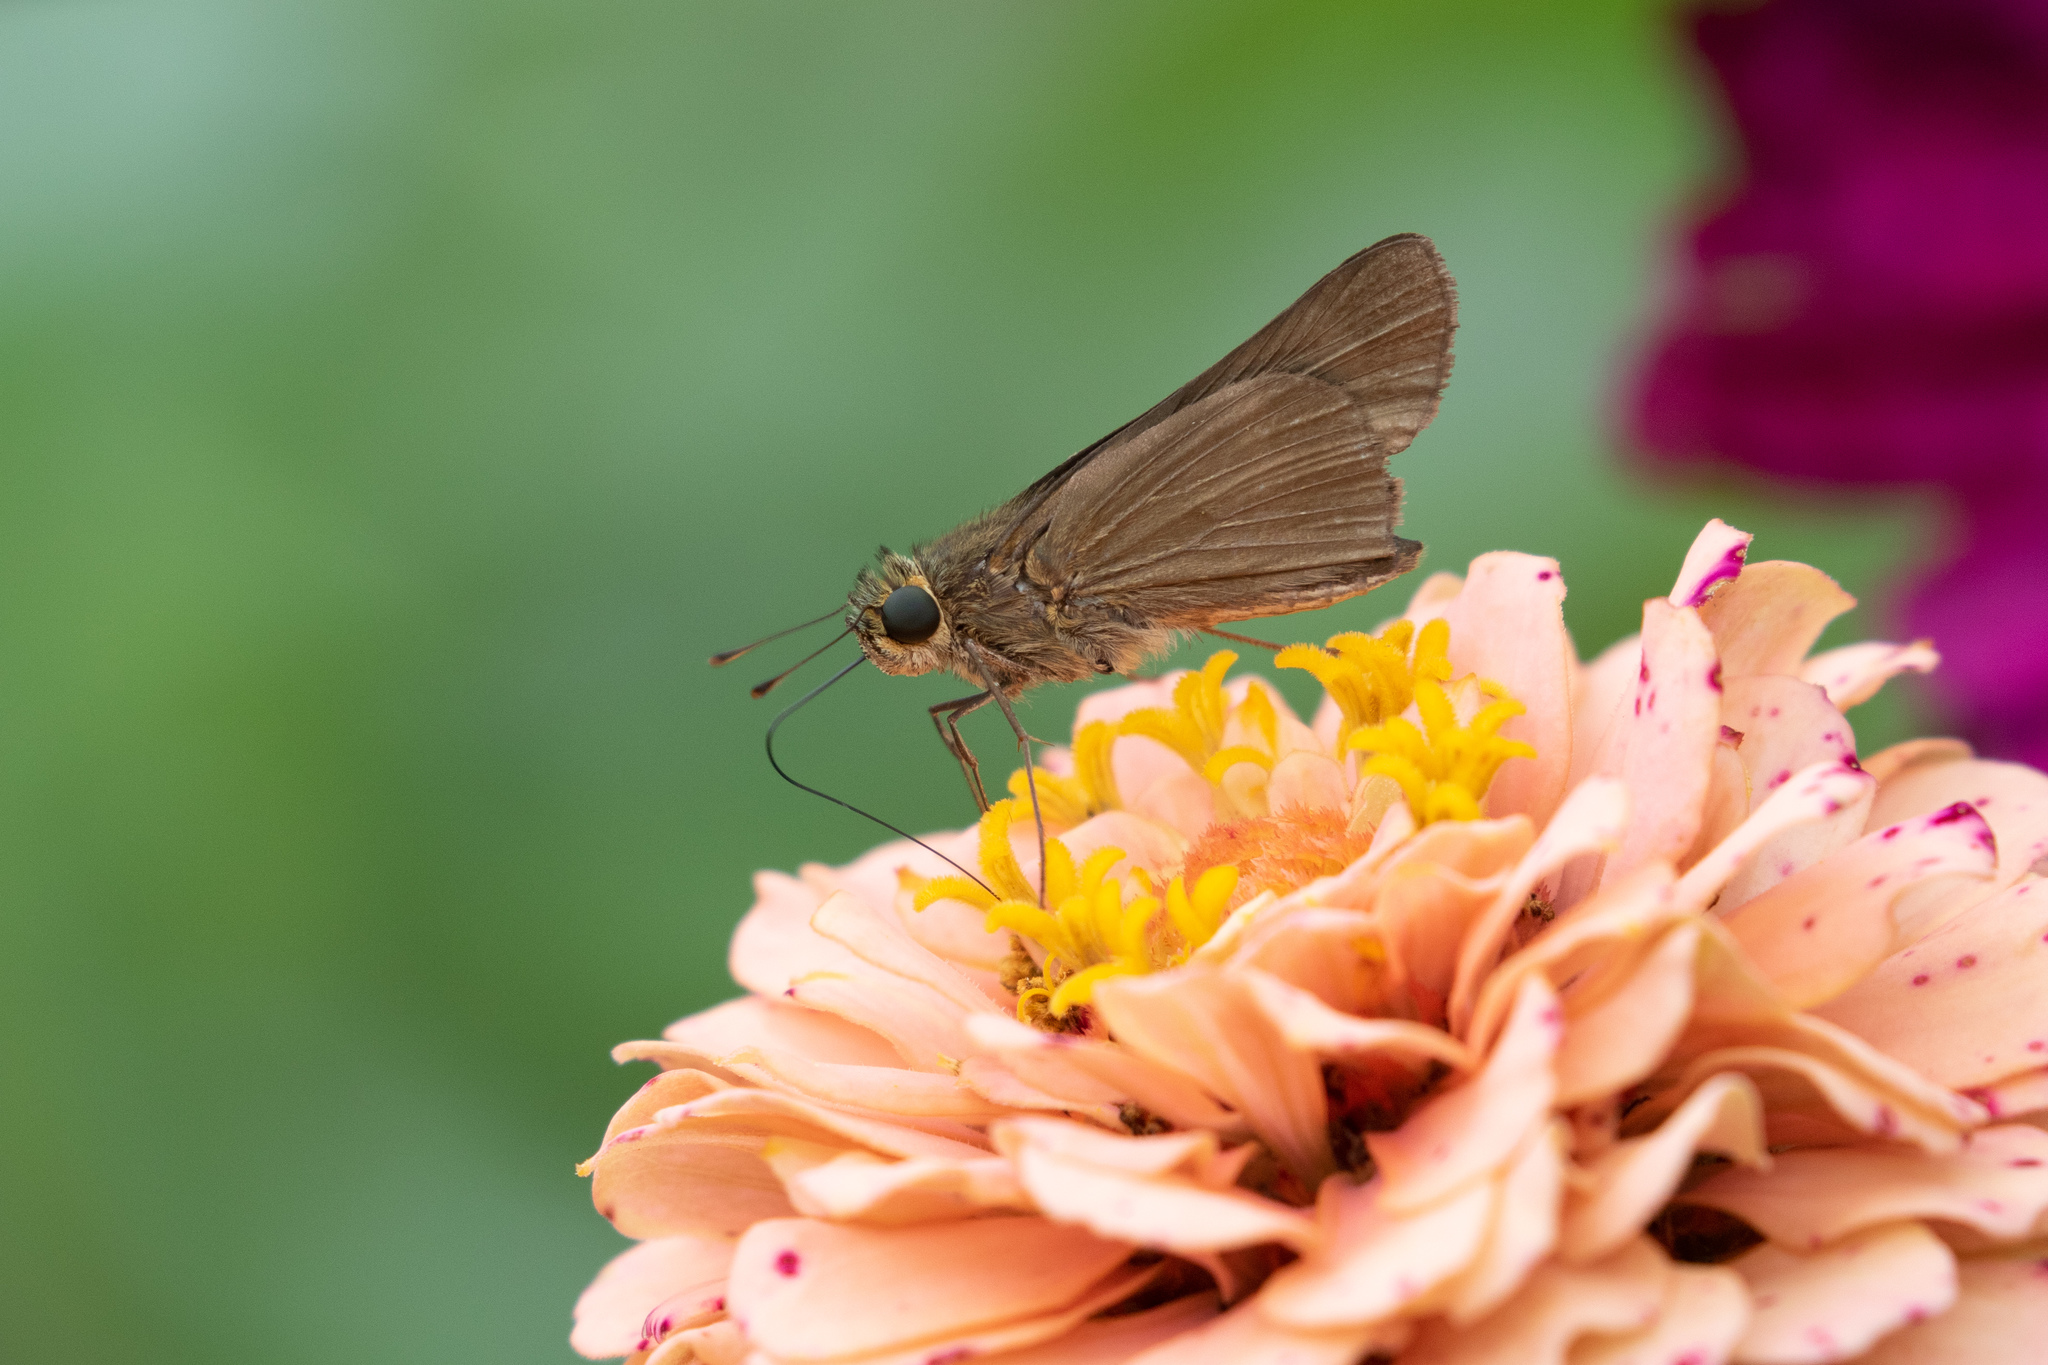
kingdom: Animalia
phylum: Arthropoda
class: Insecta
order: Lepidoptera
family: Hesperiidae
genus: Panoquina
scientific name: Panoquina ocola
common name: Ocola skipper
